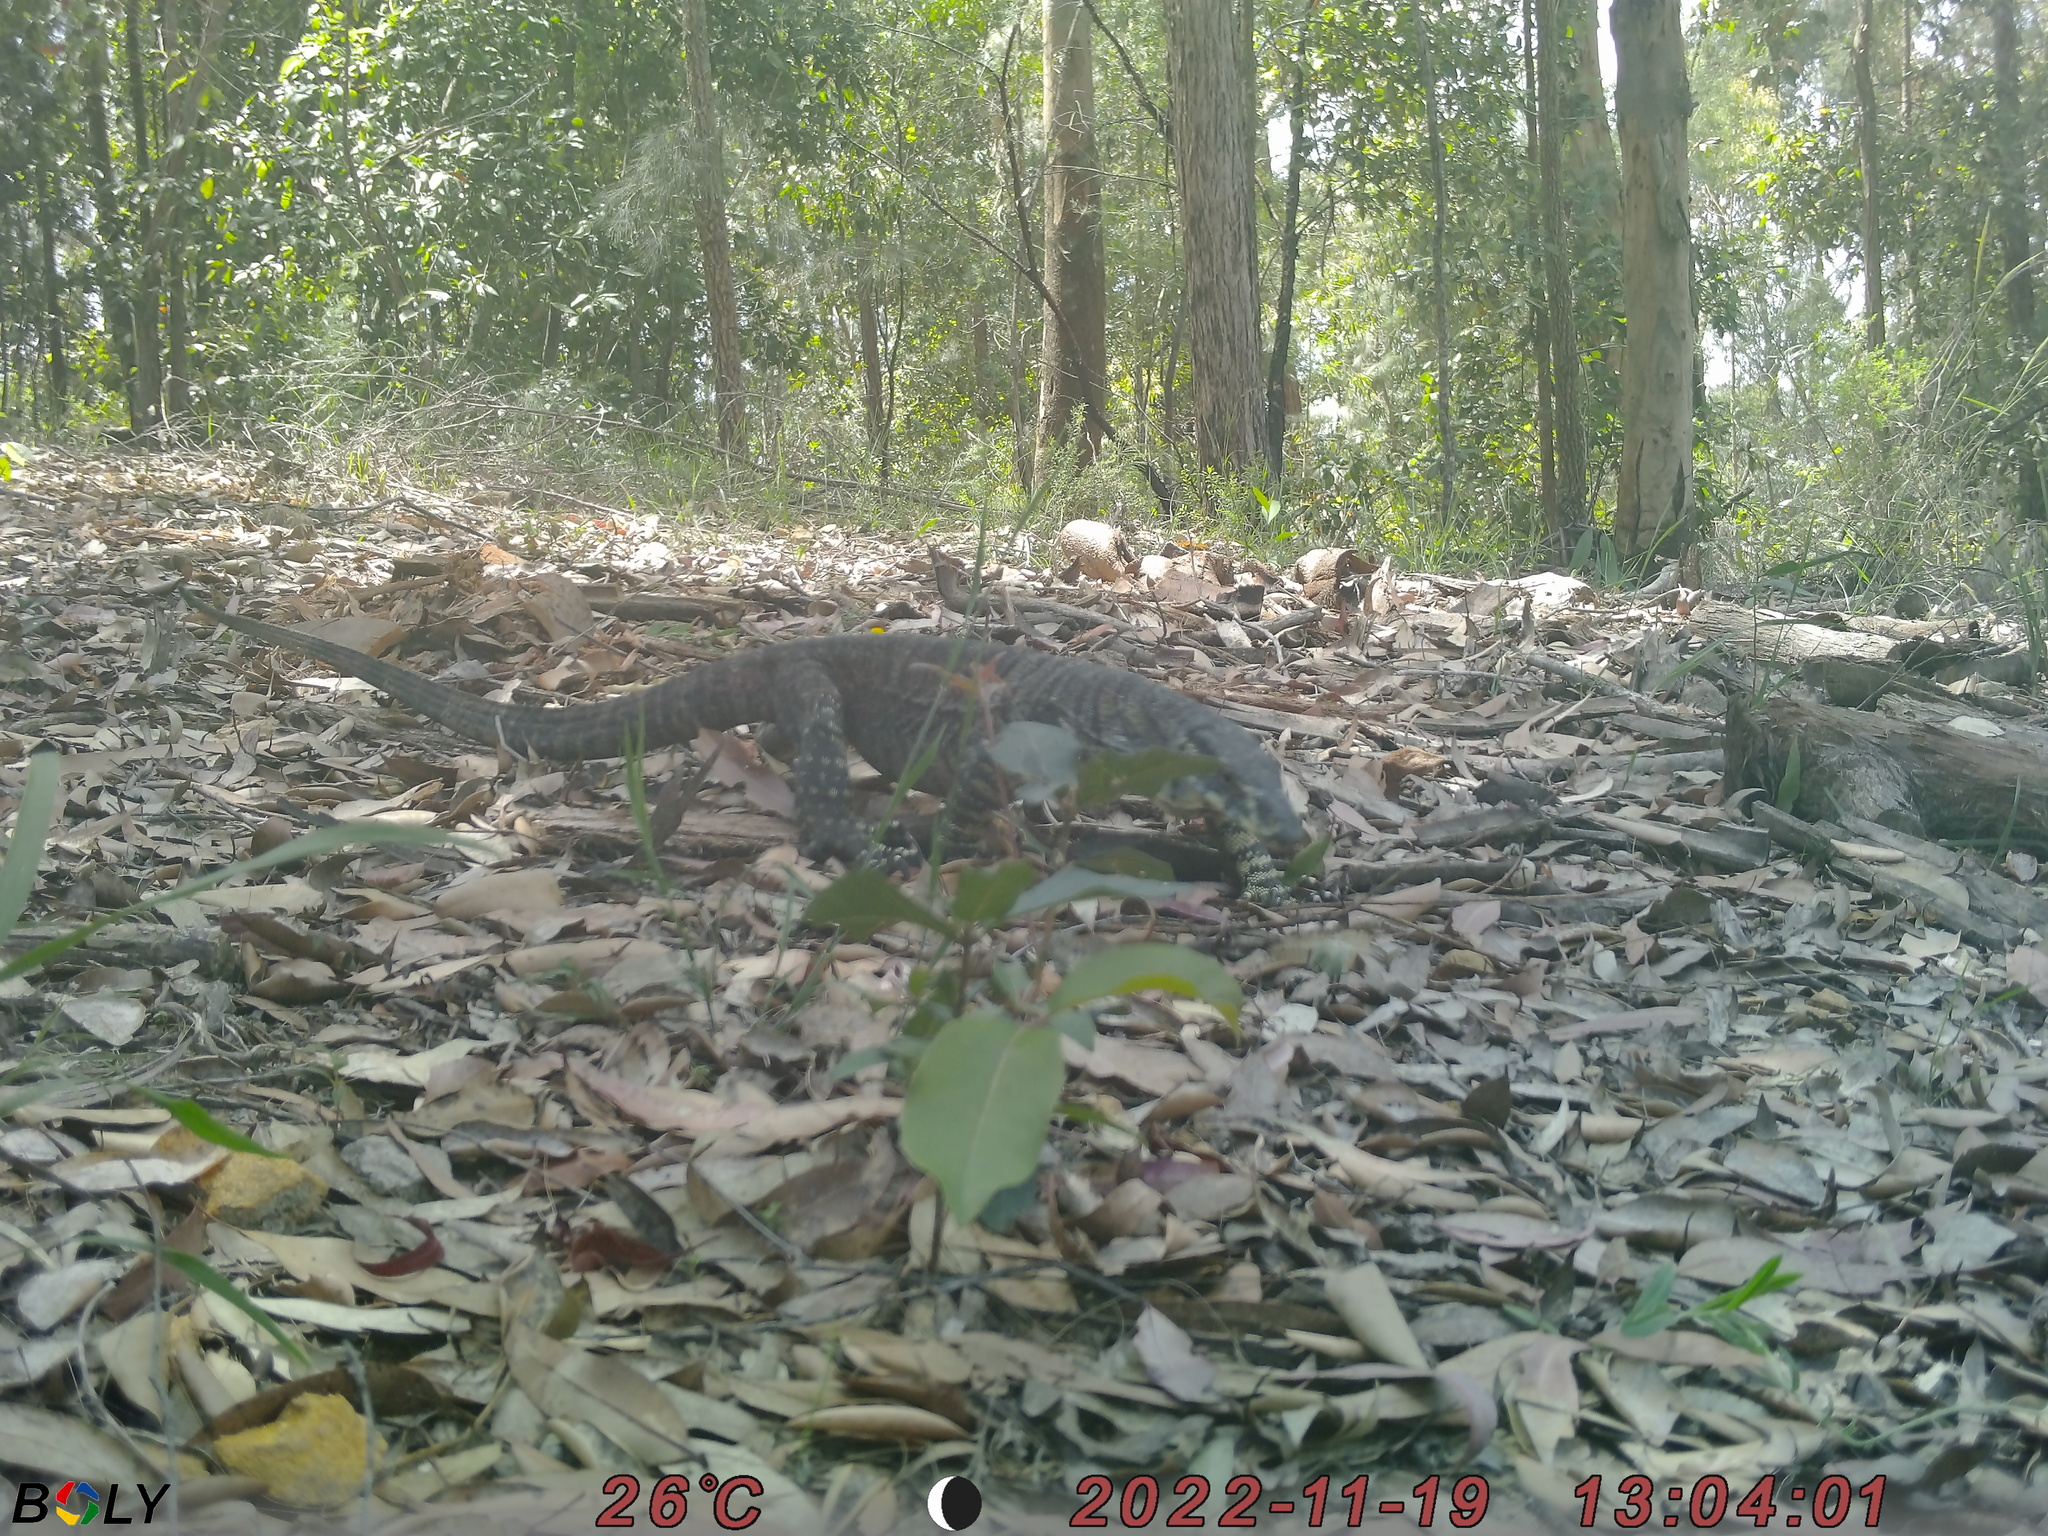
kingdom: Animalia
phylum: Chordata
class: Squamata
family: Varanidae
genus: Varanus
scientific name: Varanus varius
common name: Lace monitor
